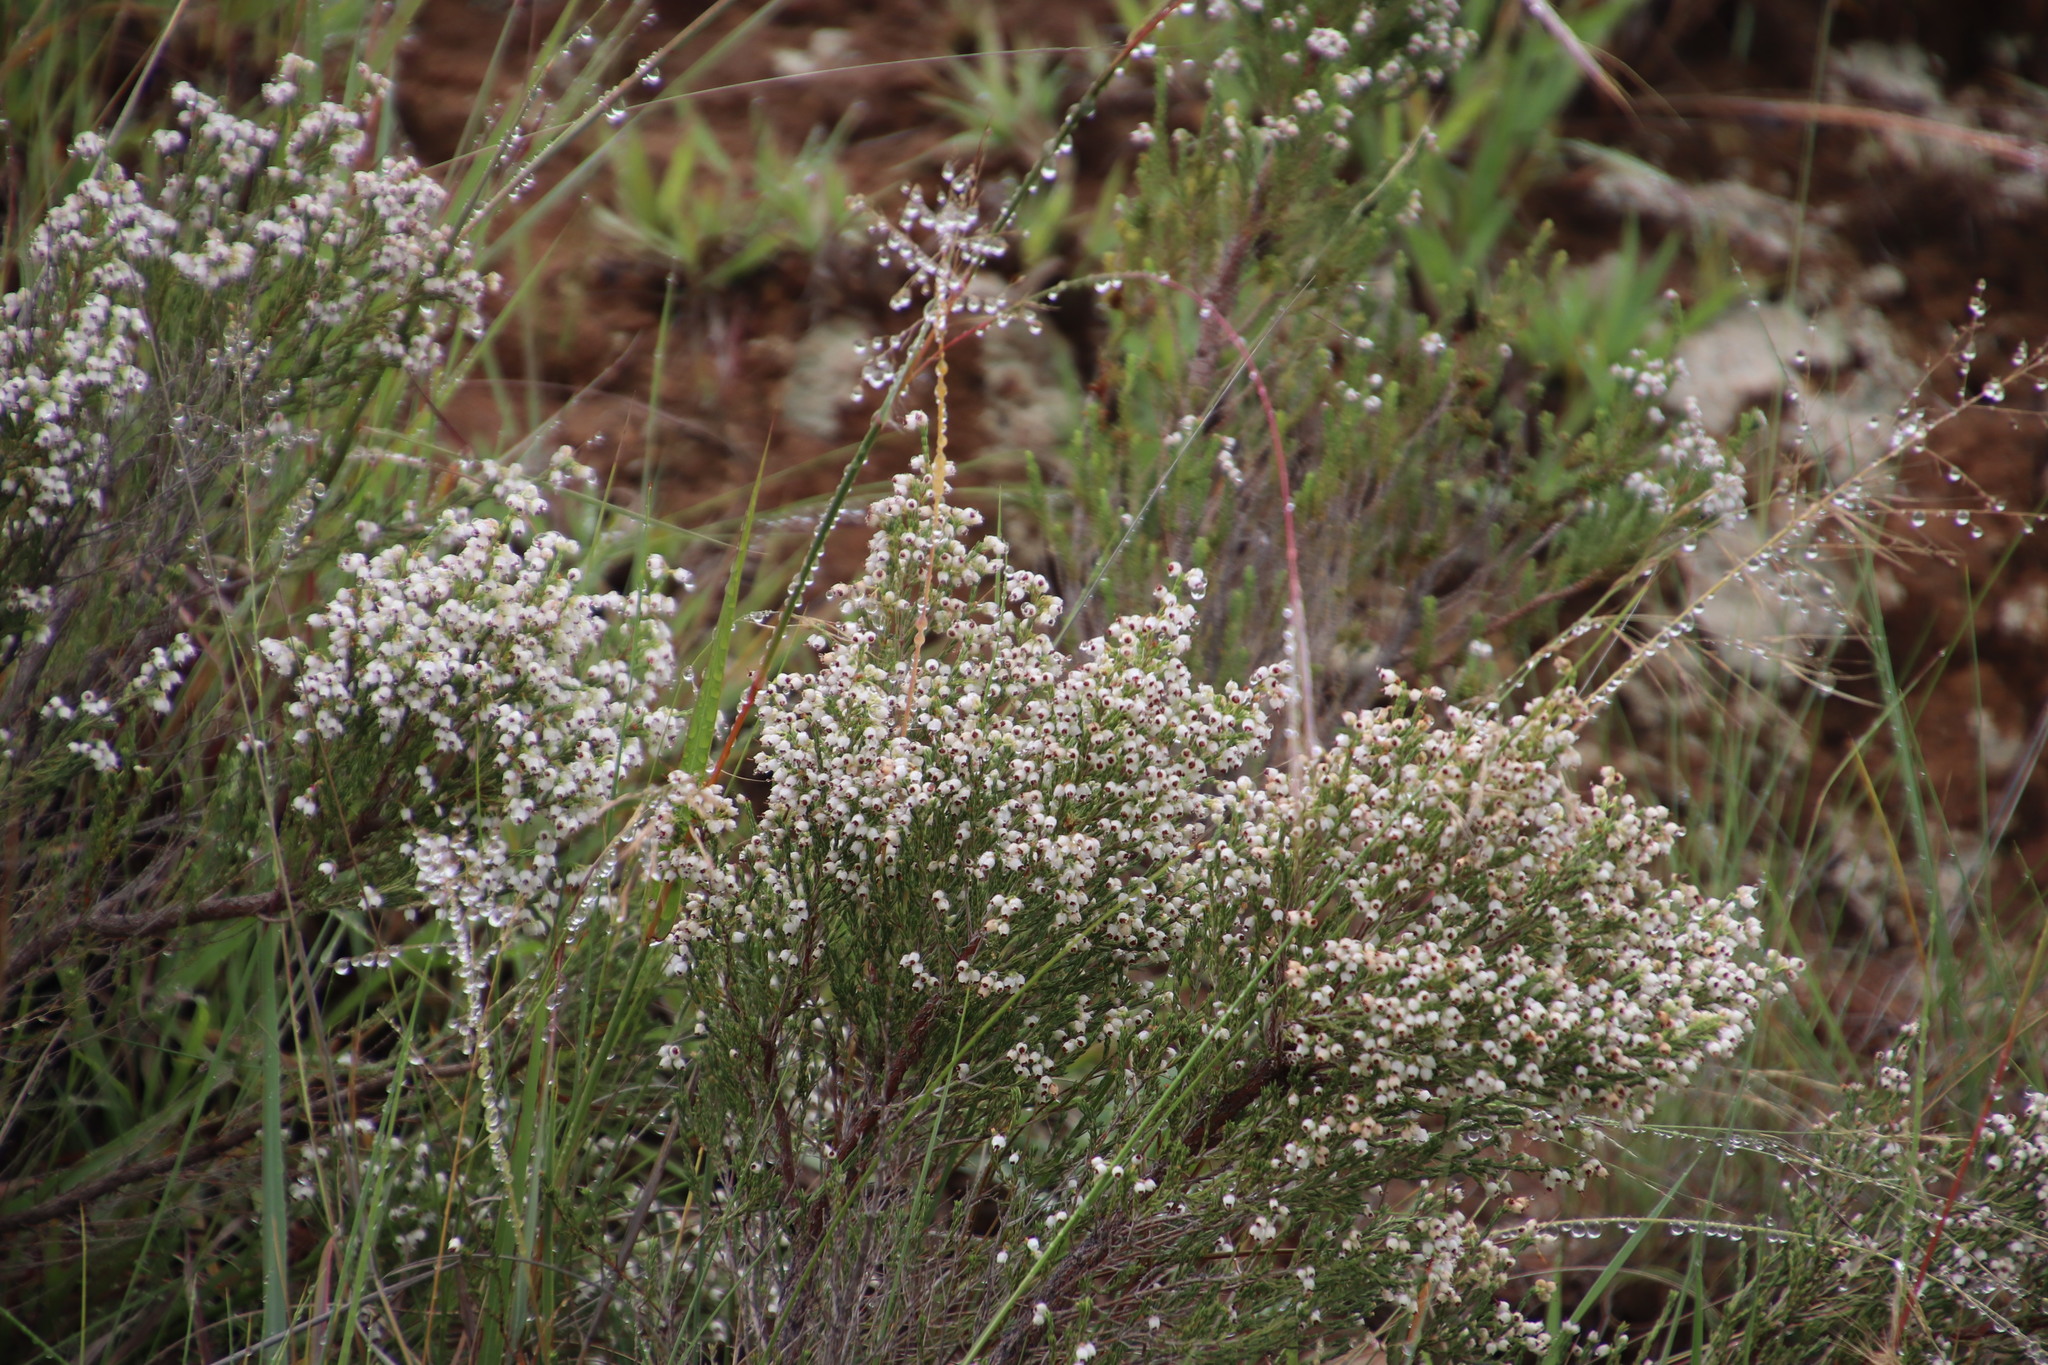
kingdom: Plantae
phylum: Tracheophyta
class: Magnoliopsida
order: Ericales
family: Ericaceae
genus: Erica
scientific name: Erica drakensbergensis
